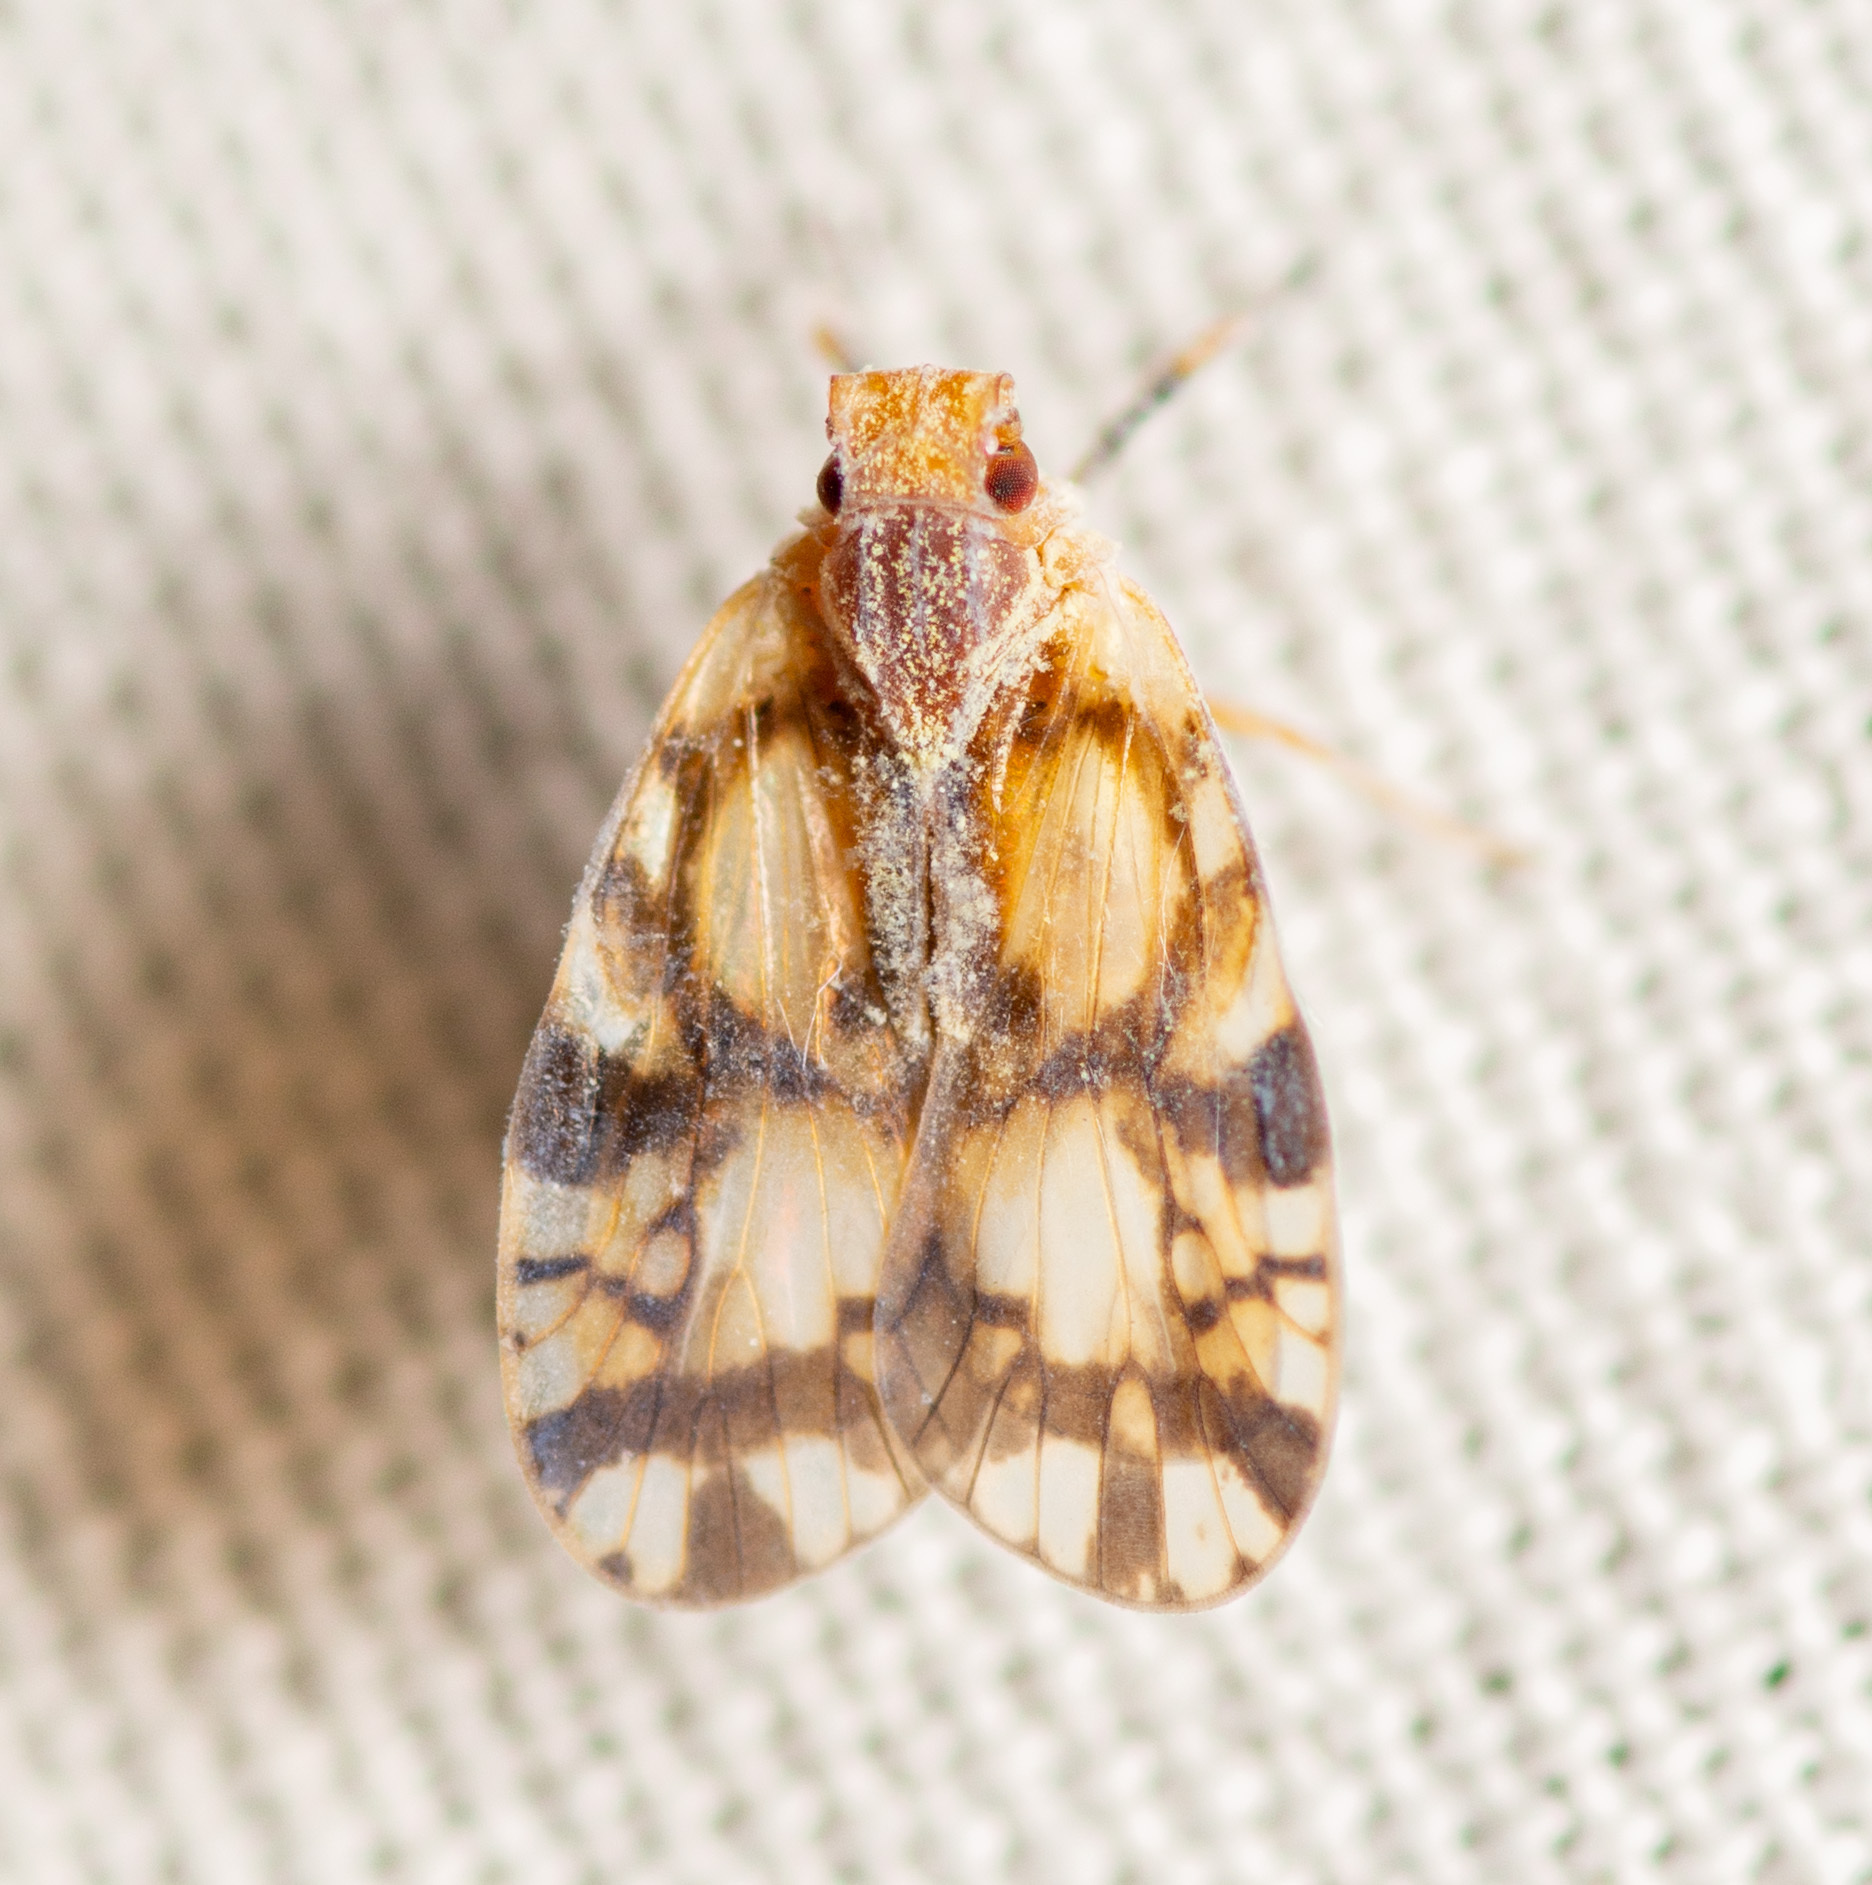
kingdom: Animalia
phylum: Arthropoda
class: Insecta
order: Hemiptera
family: Cixiidae
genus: Bothriocera
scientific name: Bothriocera knulli
